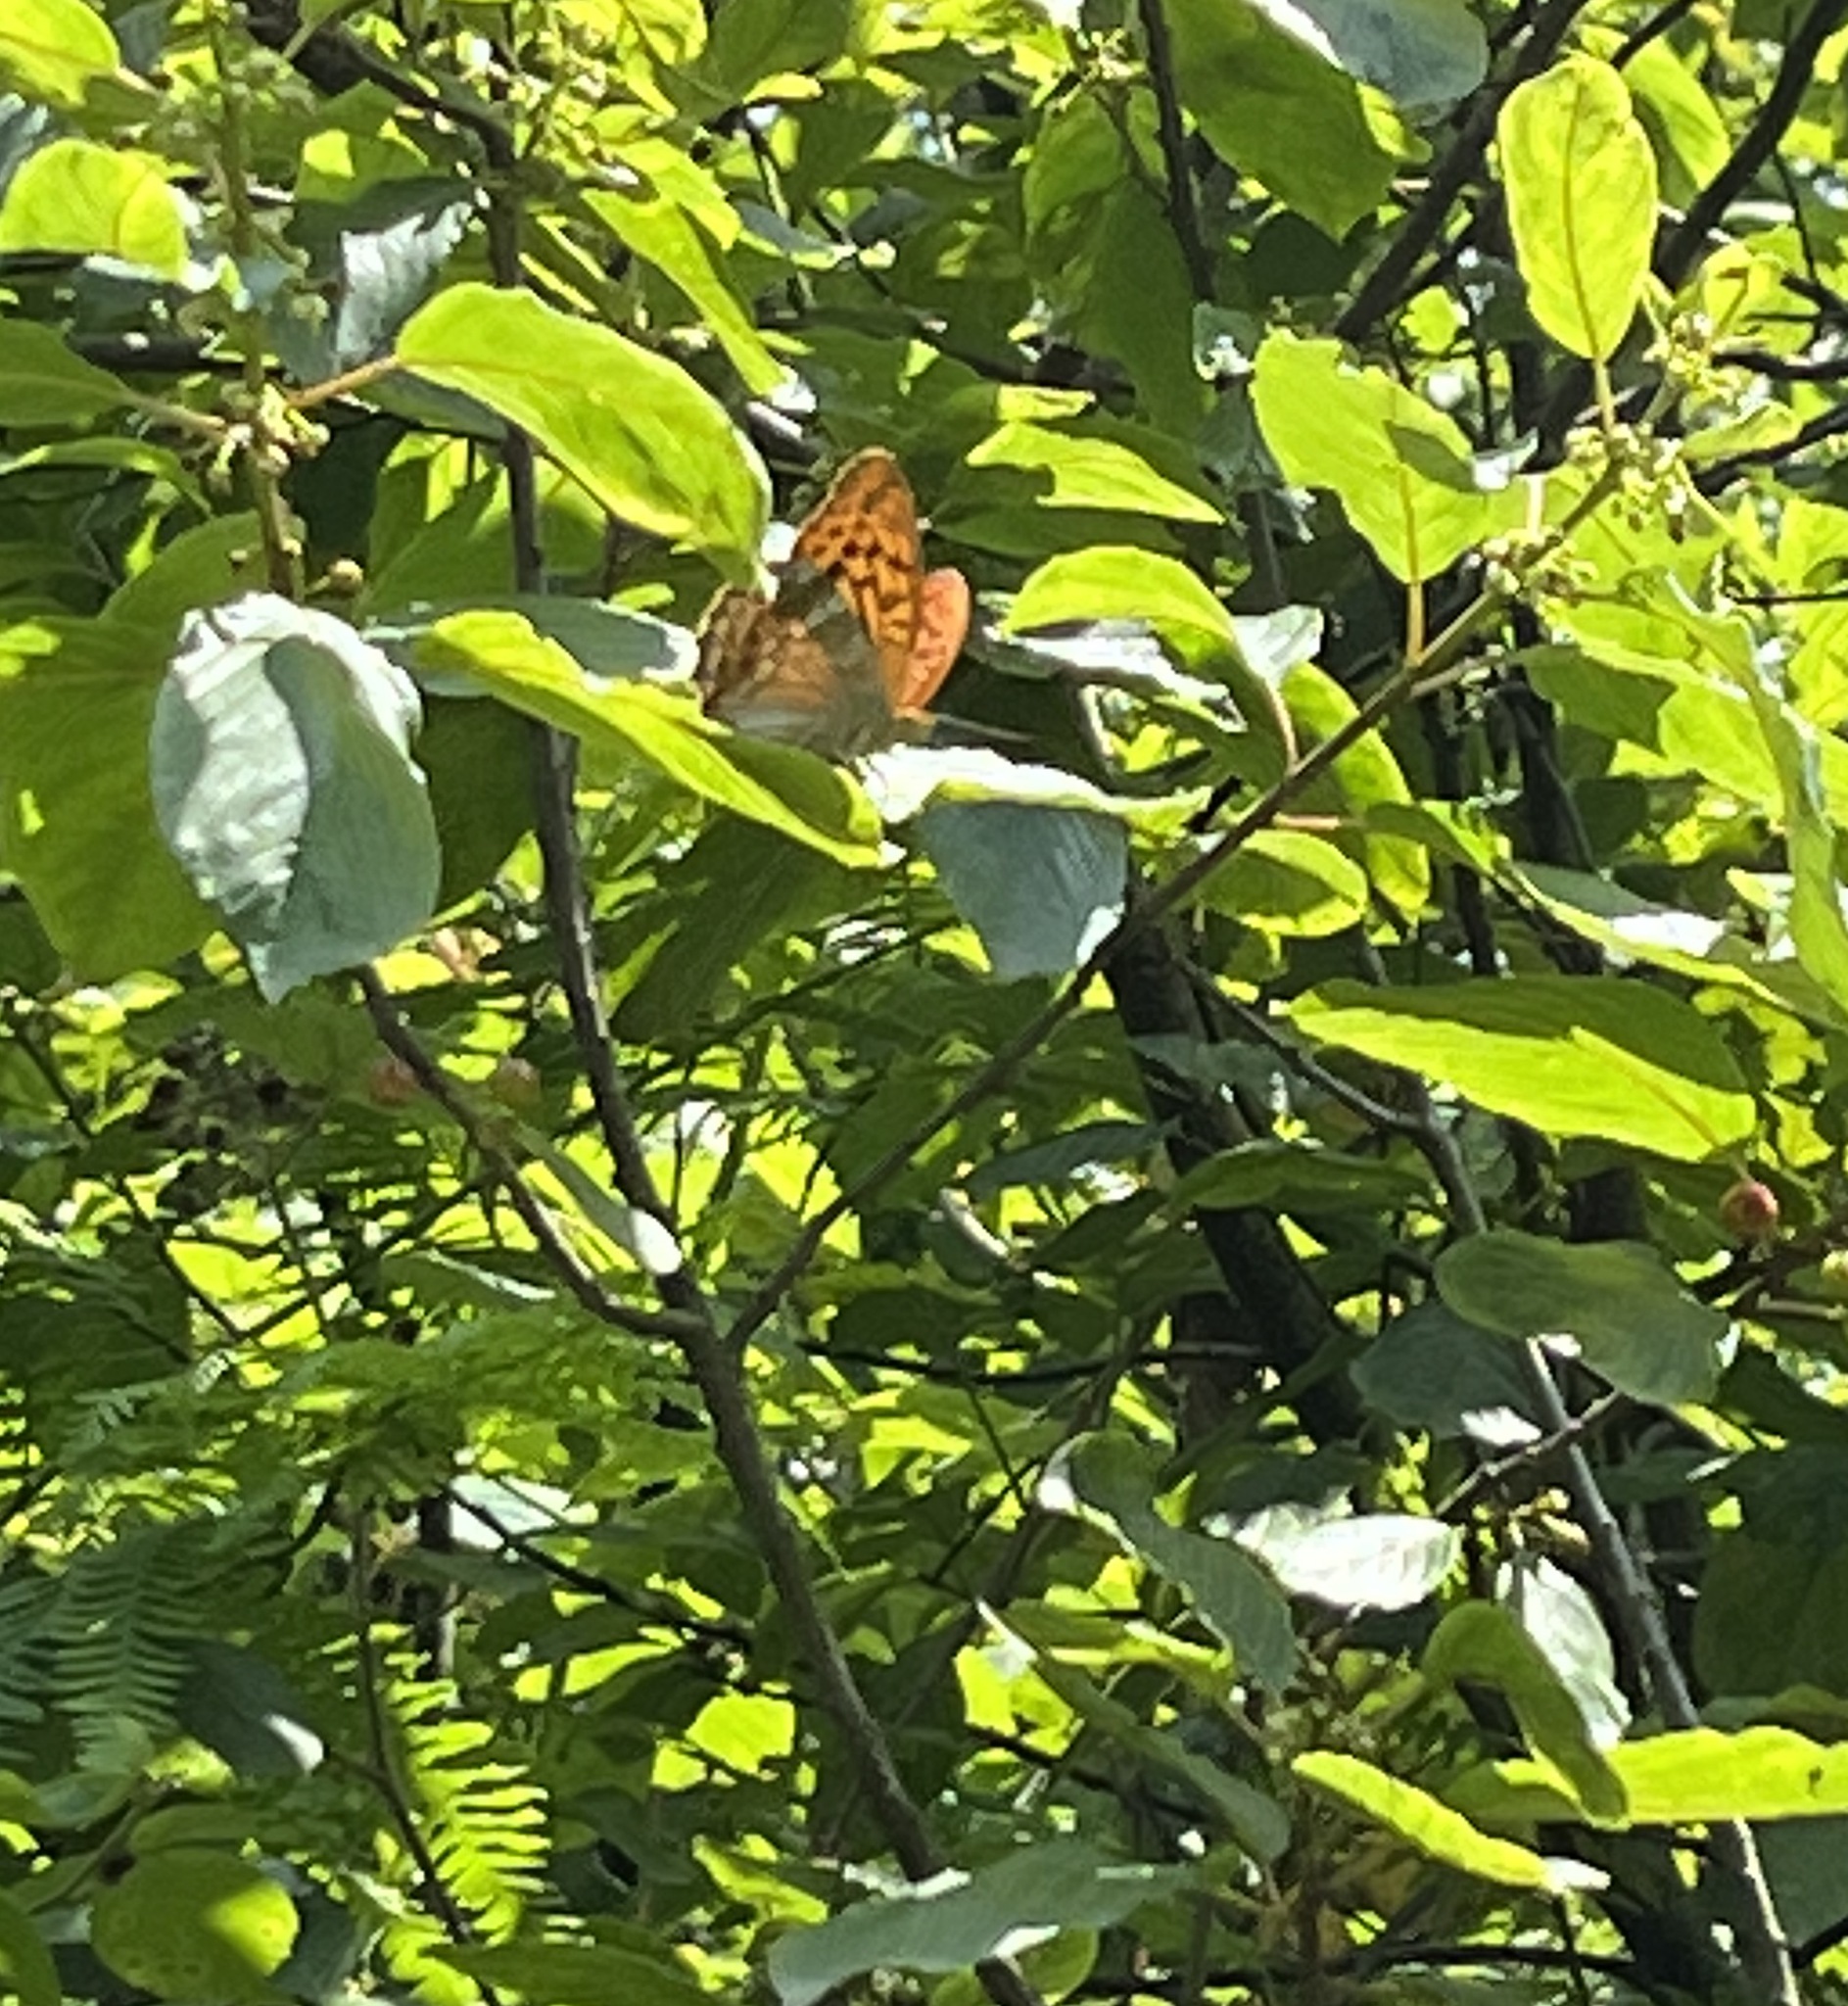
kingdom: Animalia
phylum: Arthropoda
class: Insecta
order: Lepidoptera
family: Nymphalidae
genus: Argynnis
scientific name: Argynnis paphia
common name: Silver-washed fritillary
